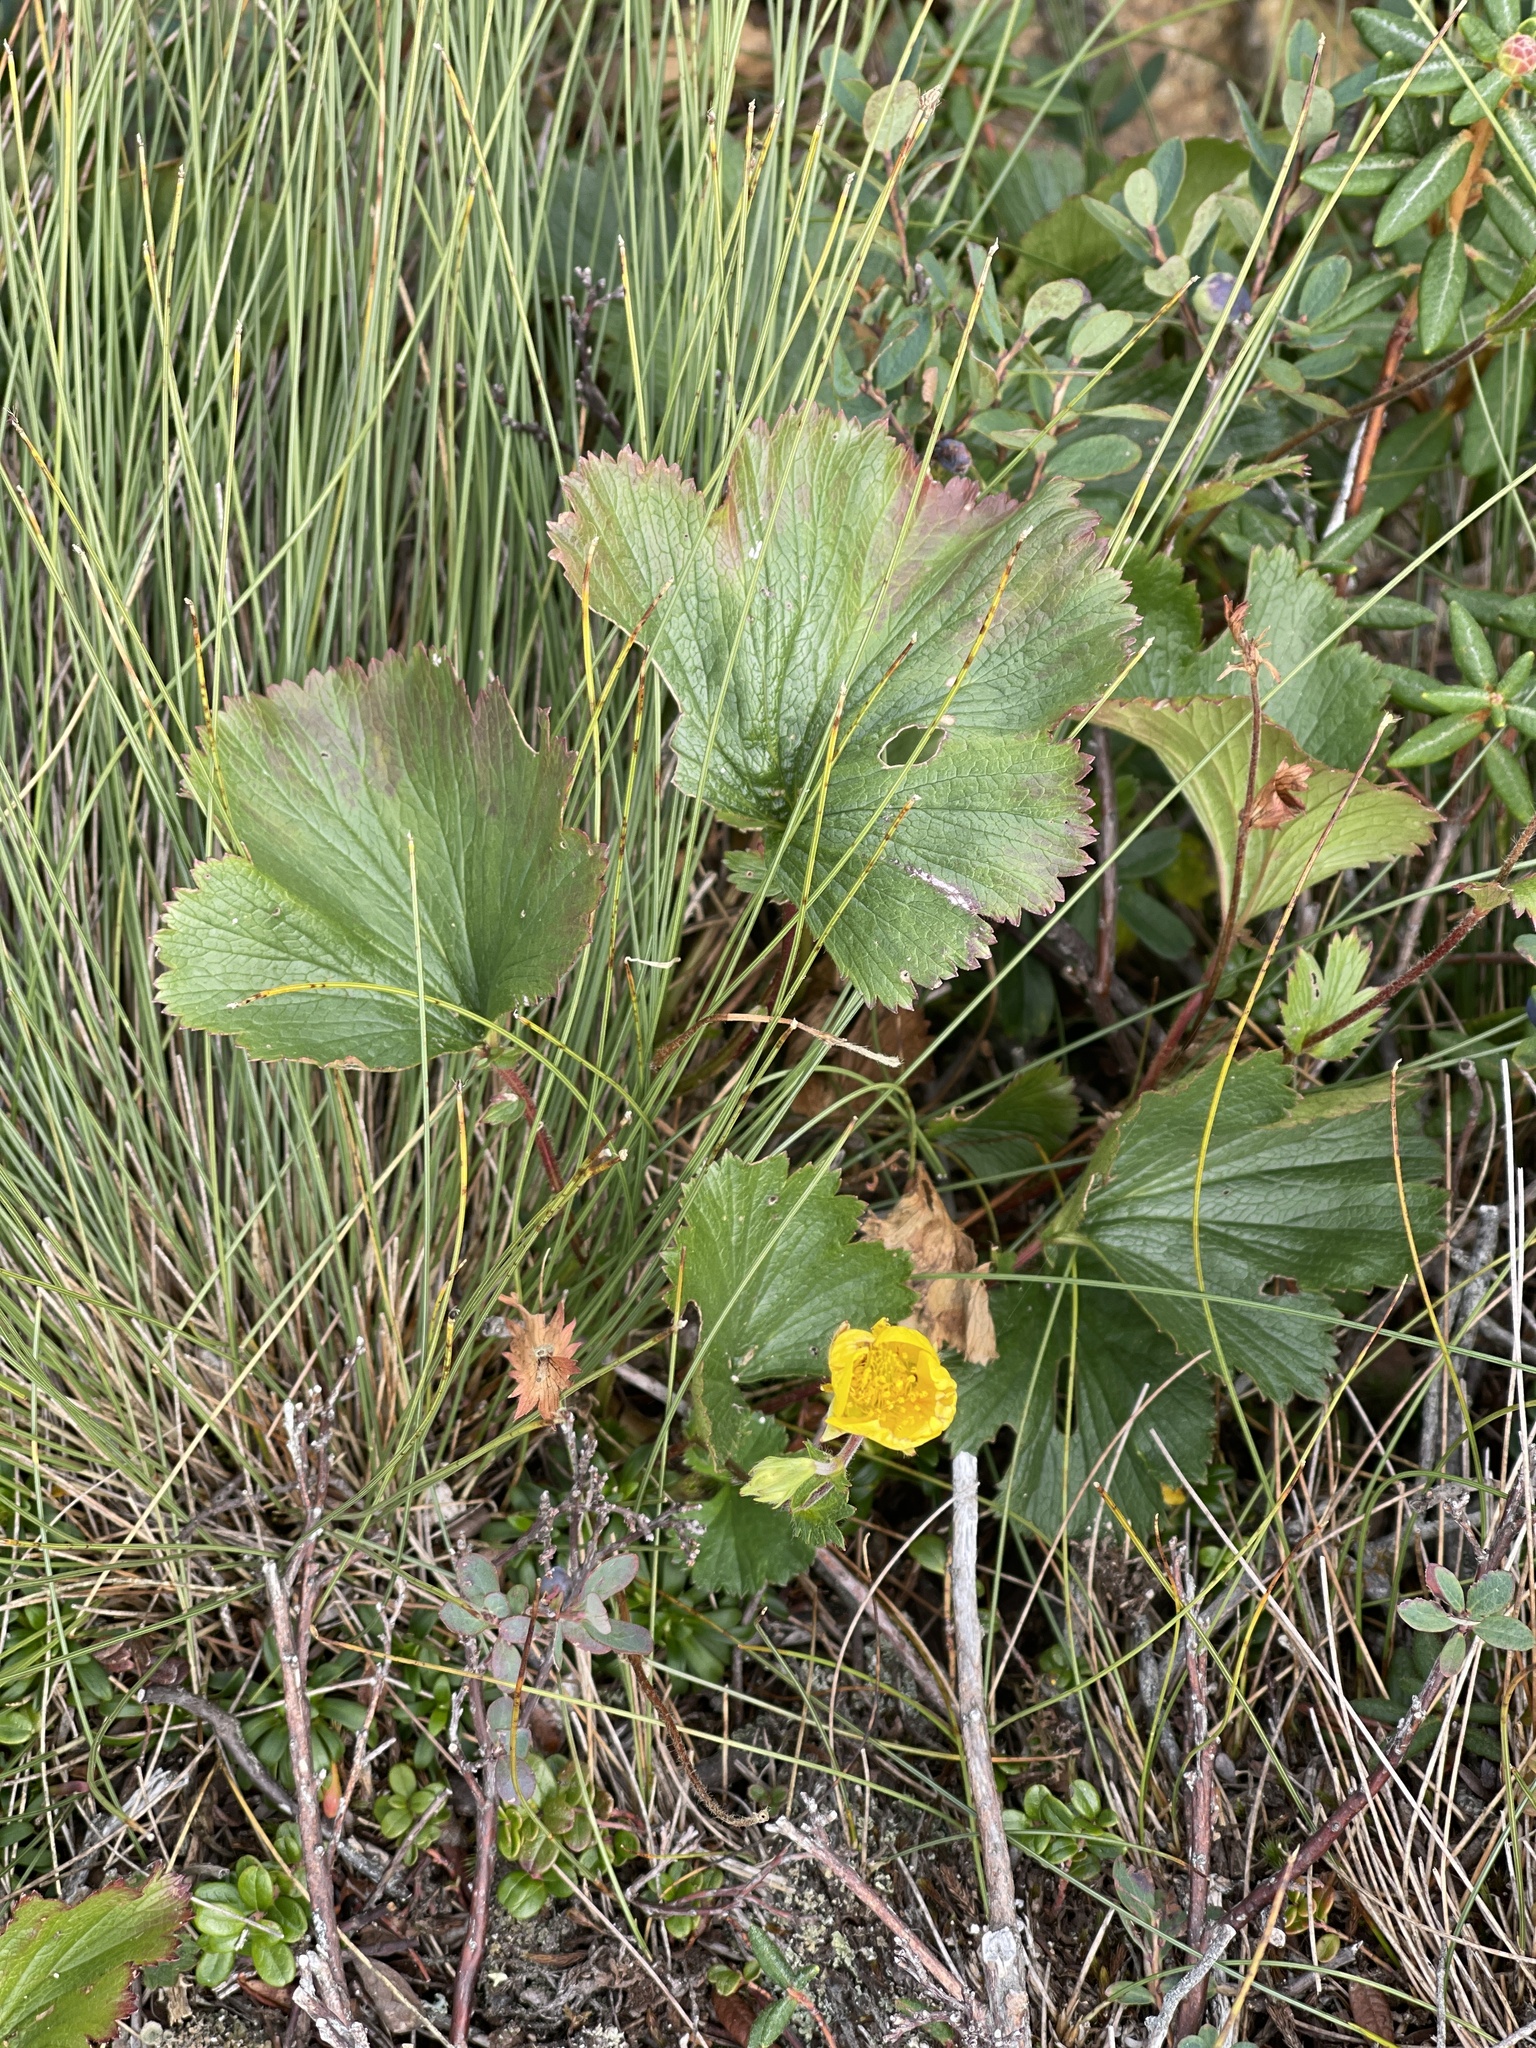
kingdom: Plantae
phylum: Tracheophyta
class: Magnoliopsida
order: Rosales
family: Rosaceae
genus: Geum
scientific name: Geum peckii
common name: Eastern mountain avens
